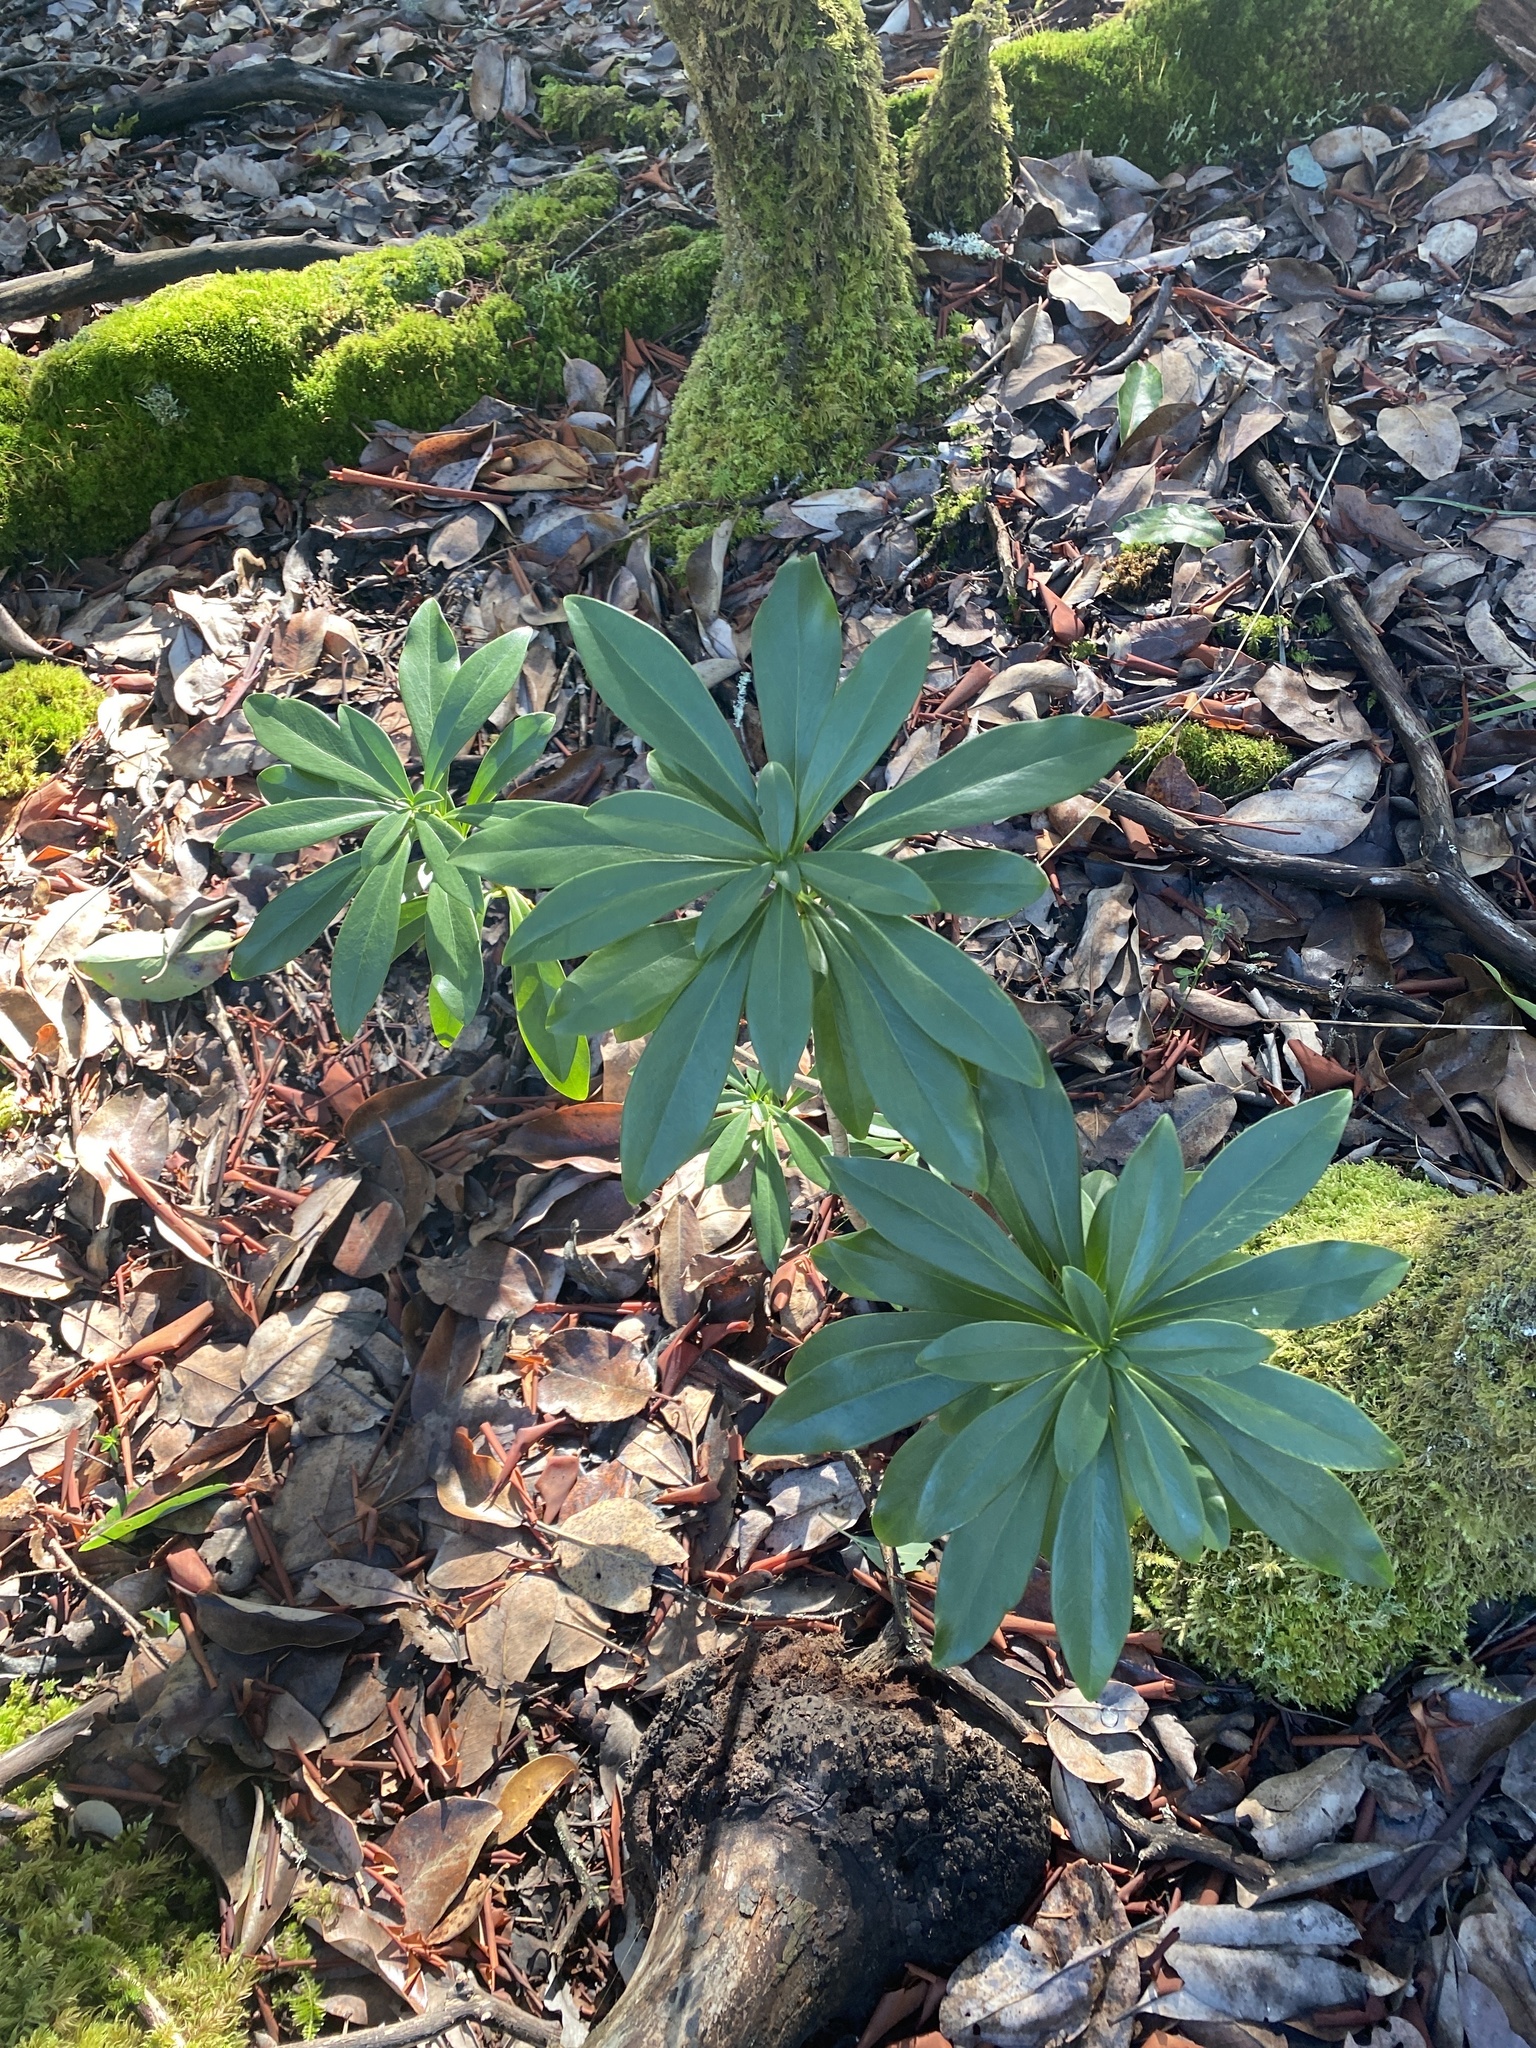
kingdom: Plantae
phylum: Tracheophyta
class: Magnoliopsida
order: Malvales
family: Thymelaeaceae
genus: Daphne
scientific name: Daphne laureola
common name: Spurge-laurel
